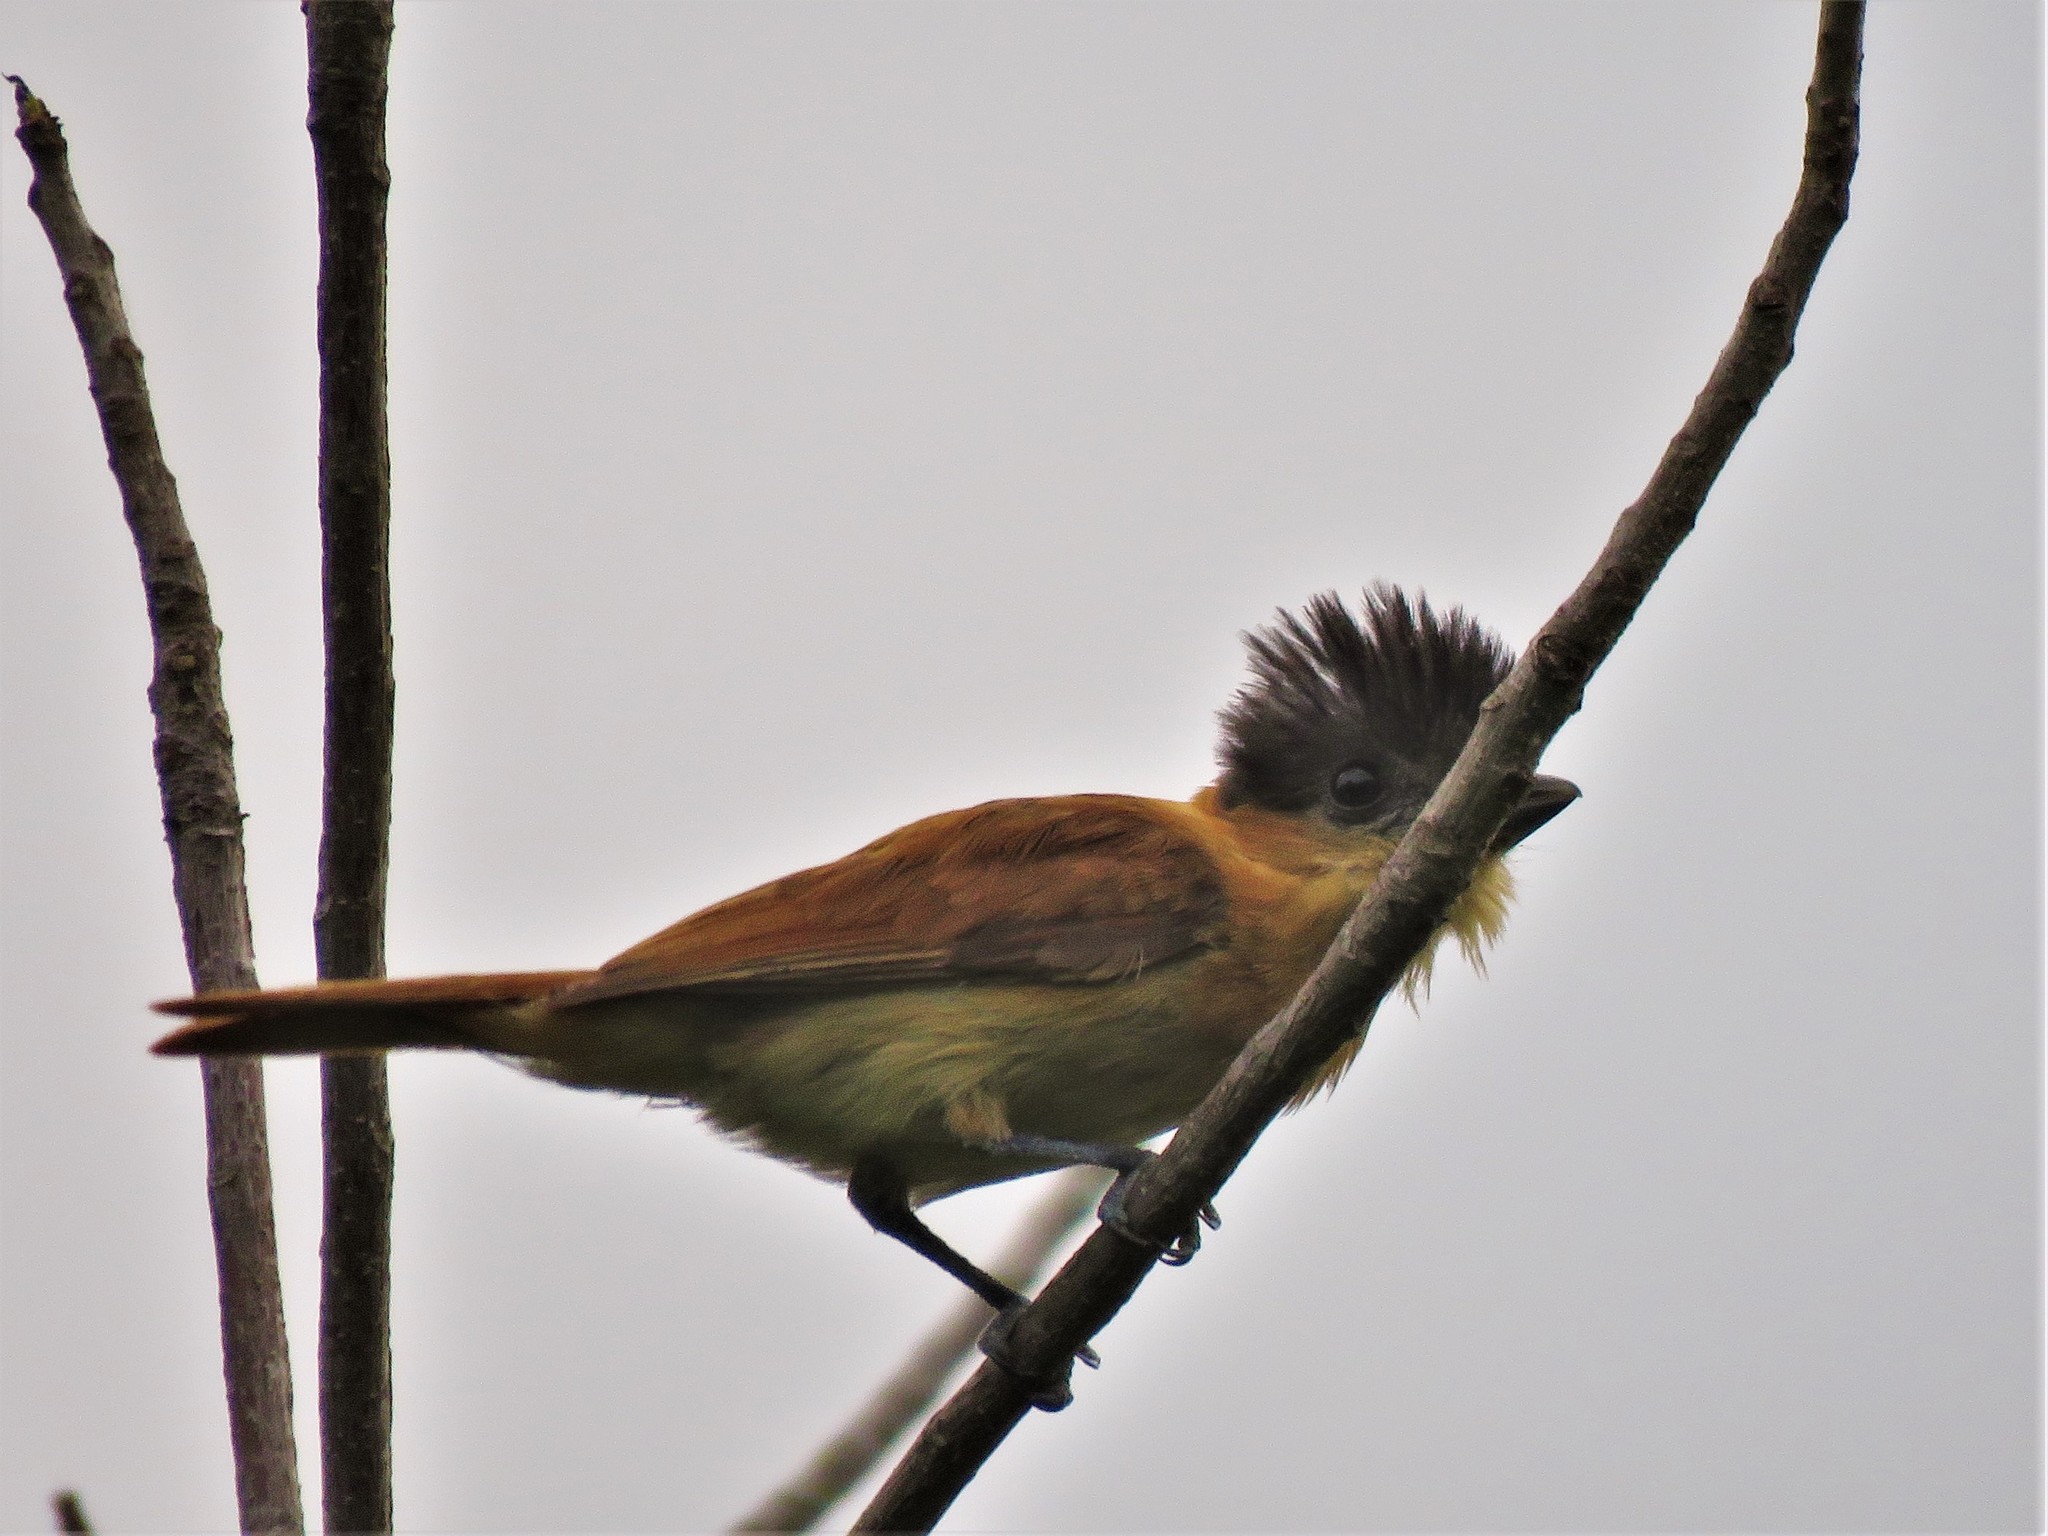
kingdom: Animalia
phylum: Chordata
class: Aves
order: Passeriformes
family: Cotingidae
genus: Pachyramphus
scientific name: Pachyramphus aglaiae
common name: Rose-throated becard
